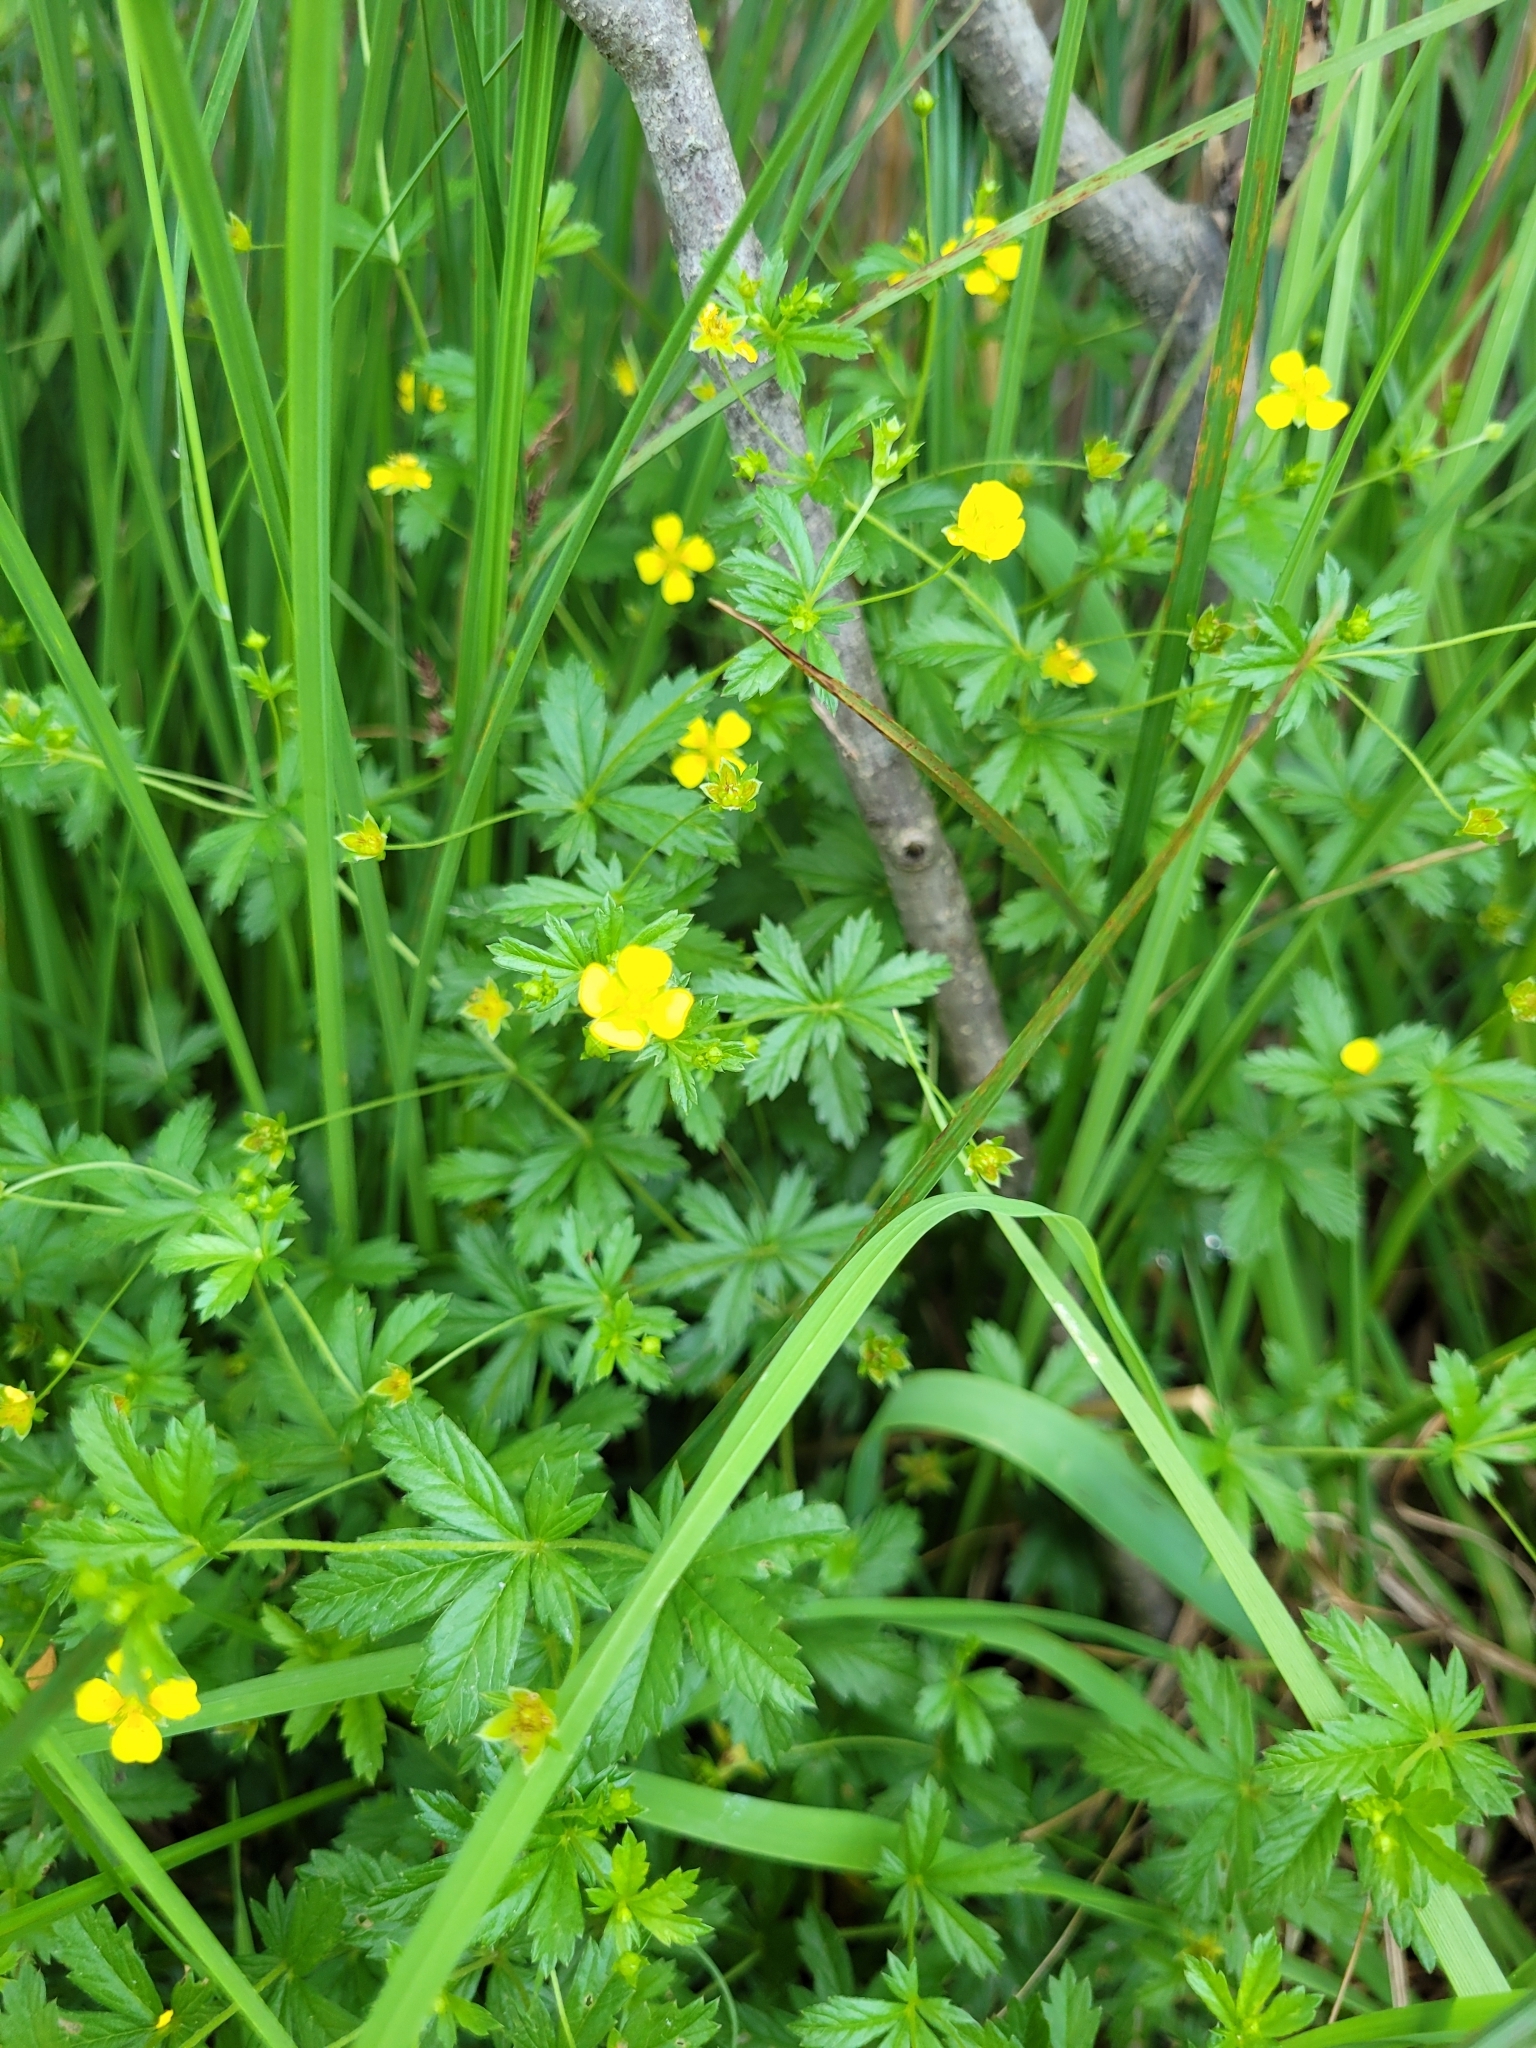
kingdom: Plantae
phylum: Tracheophyta
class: Magnoliopsida
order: Rosales
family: Rosaceae
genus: Potentilla
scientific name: Potentilla erecta
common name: Tormentil
